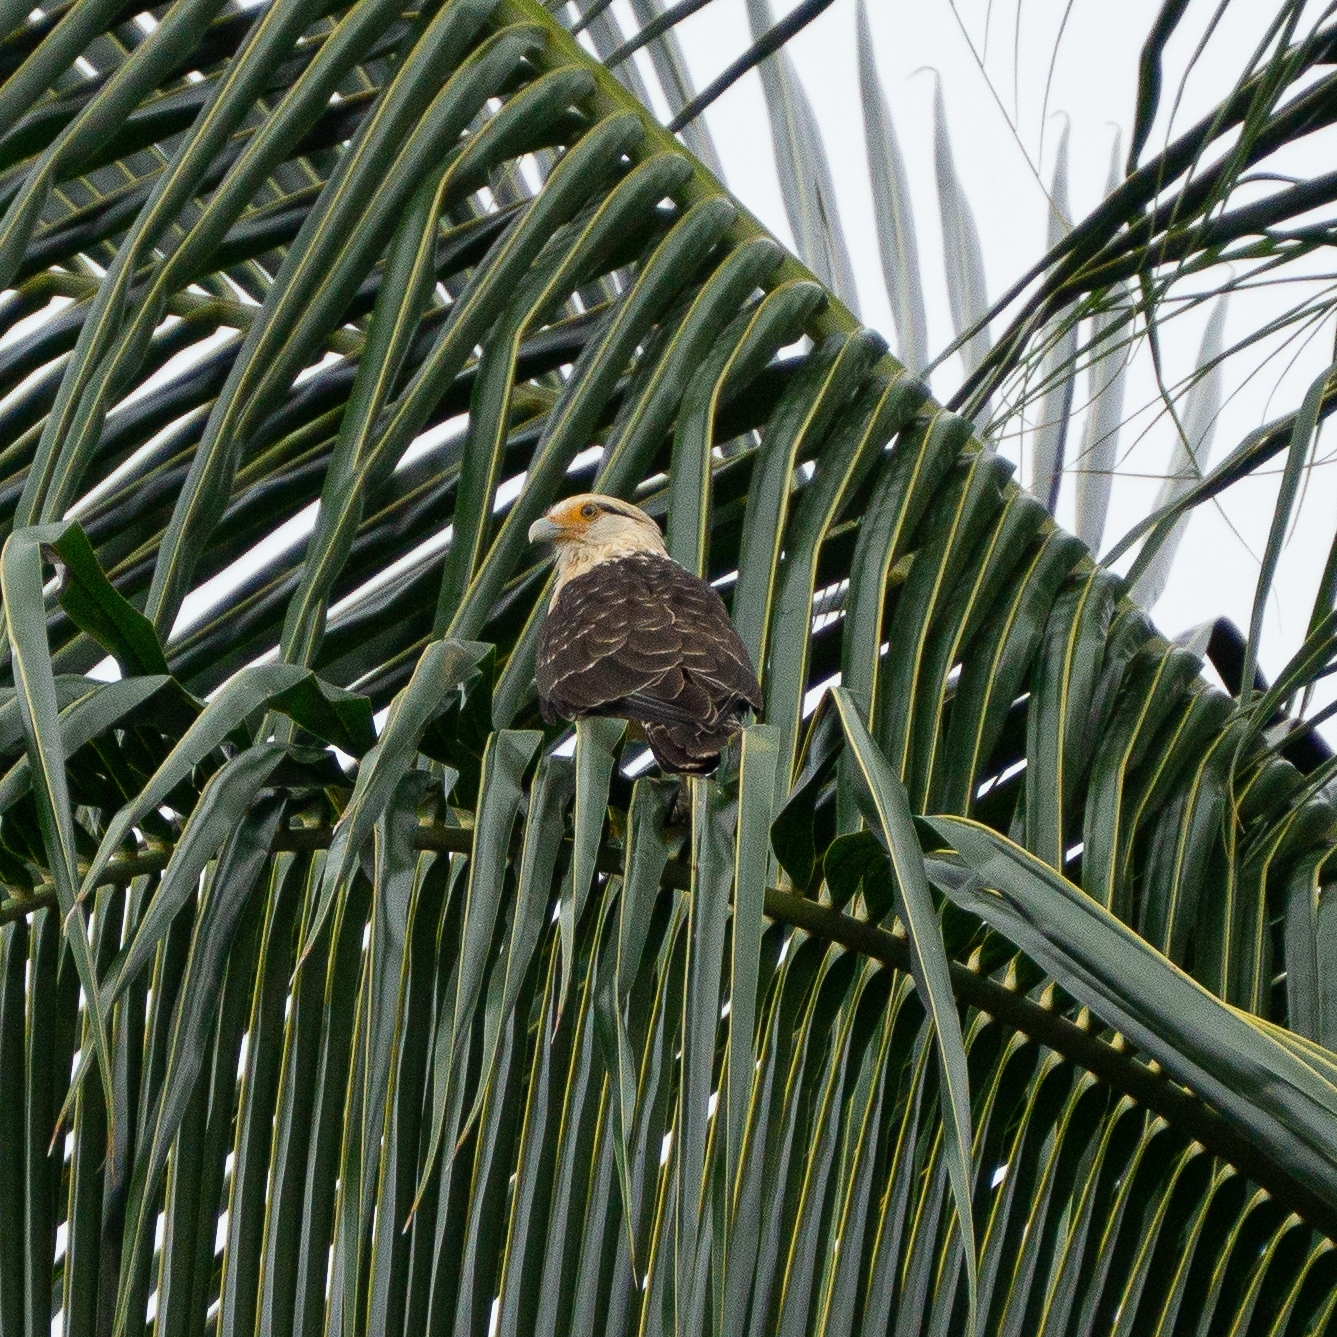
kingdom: Animalia
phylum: Chordata
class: Aves
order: Falconiformes
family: Falconidae
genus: Daptrius
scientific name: Daptrius
